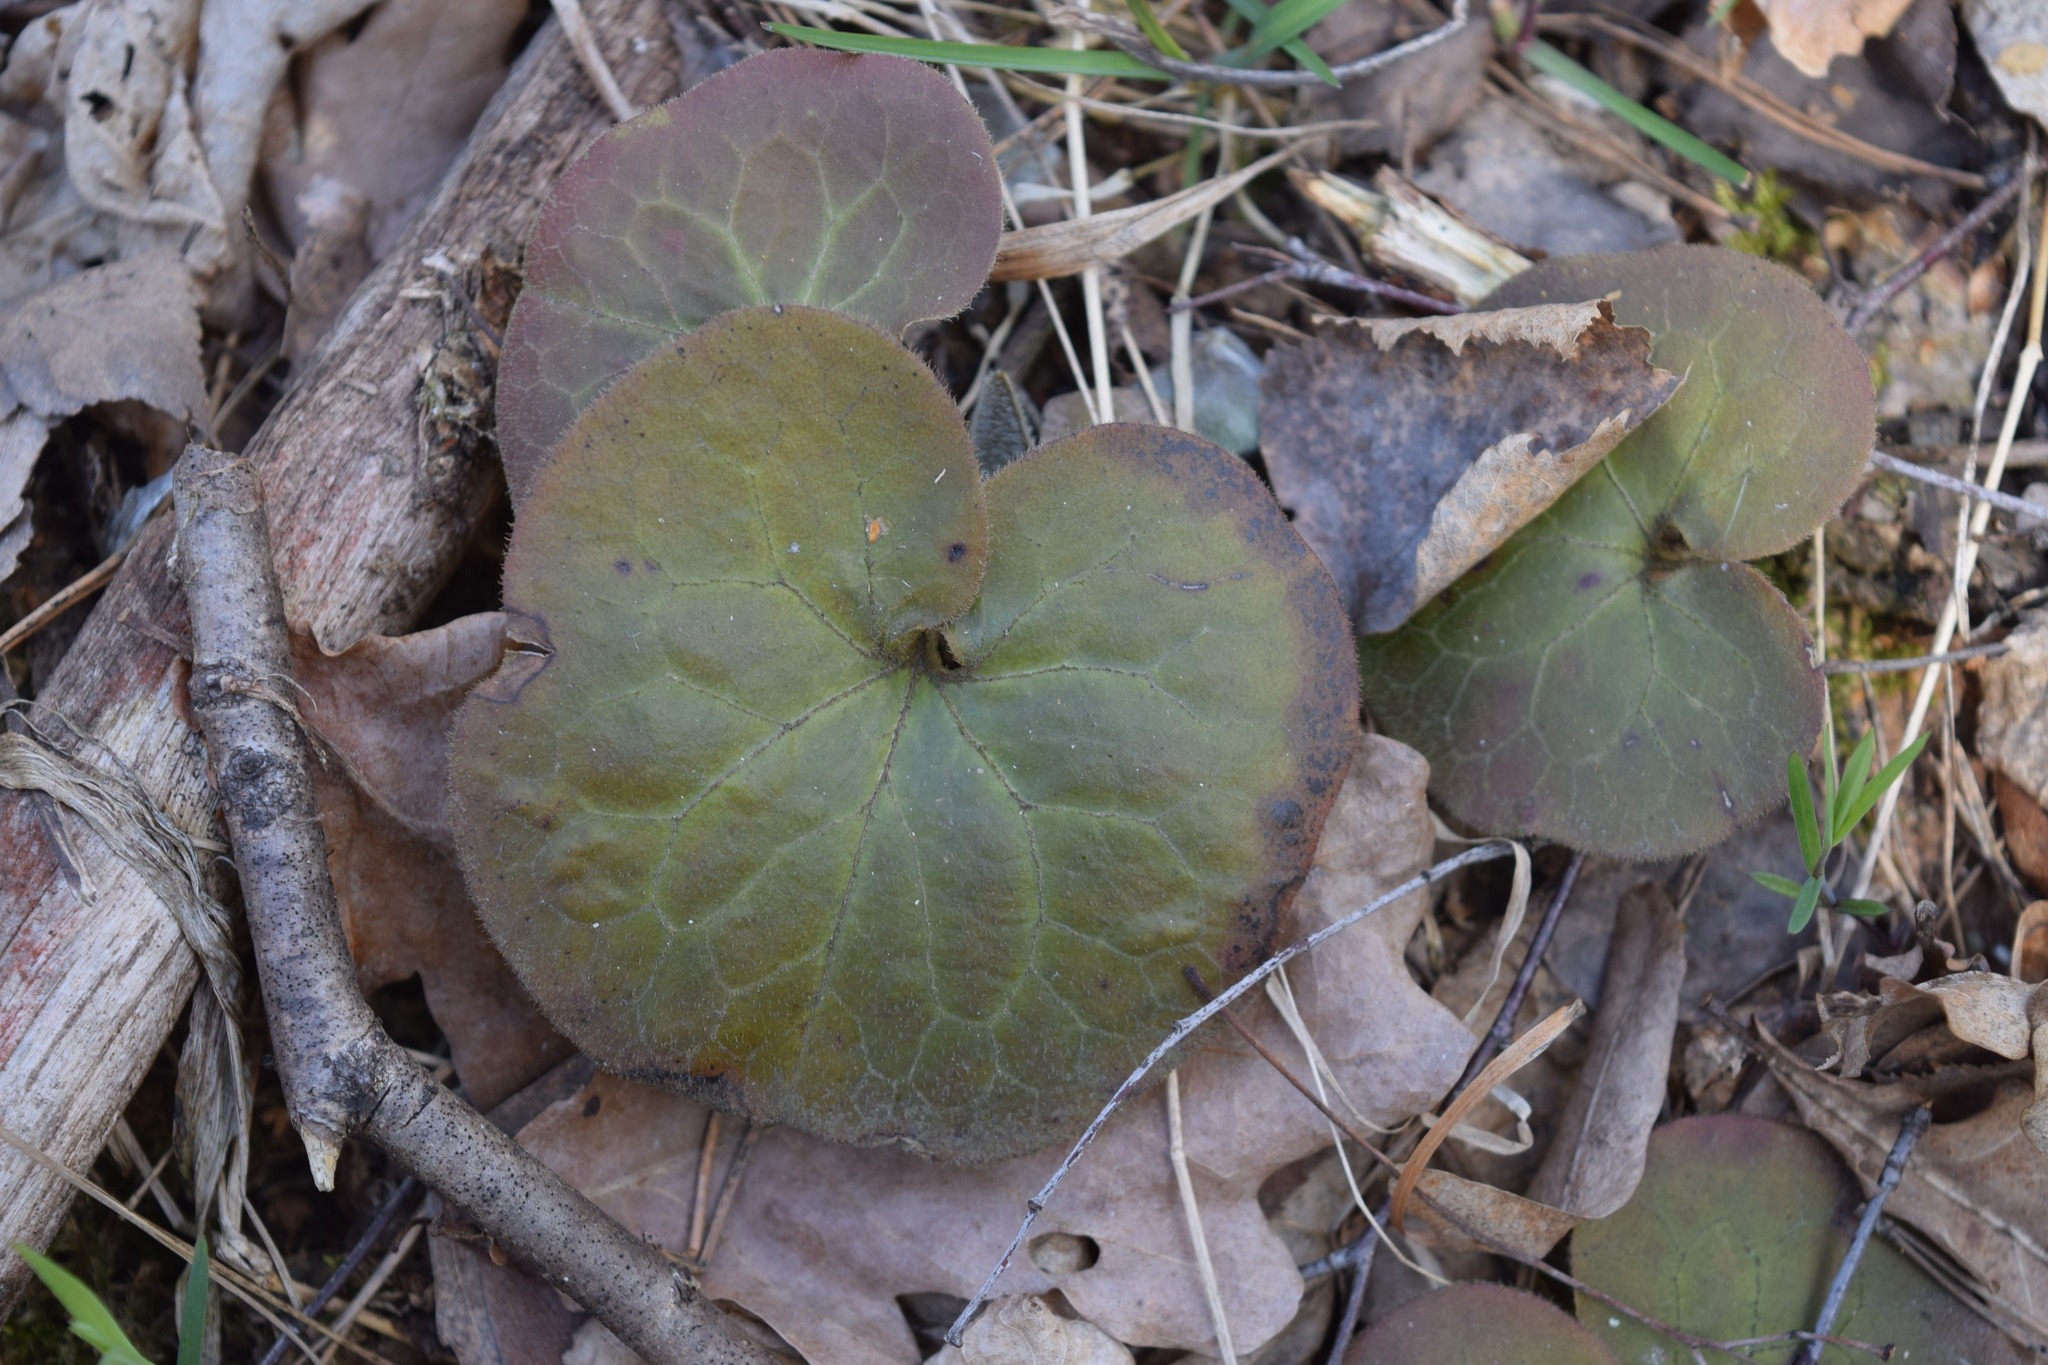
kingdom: Plantae
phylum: Tracheophyta
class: Magnoliopsida
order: Piperales
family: Aristolochiaceae
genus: Asarum
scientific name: Asarum europaeum
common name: Asarabacca
